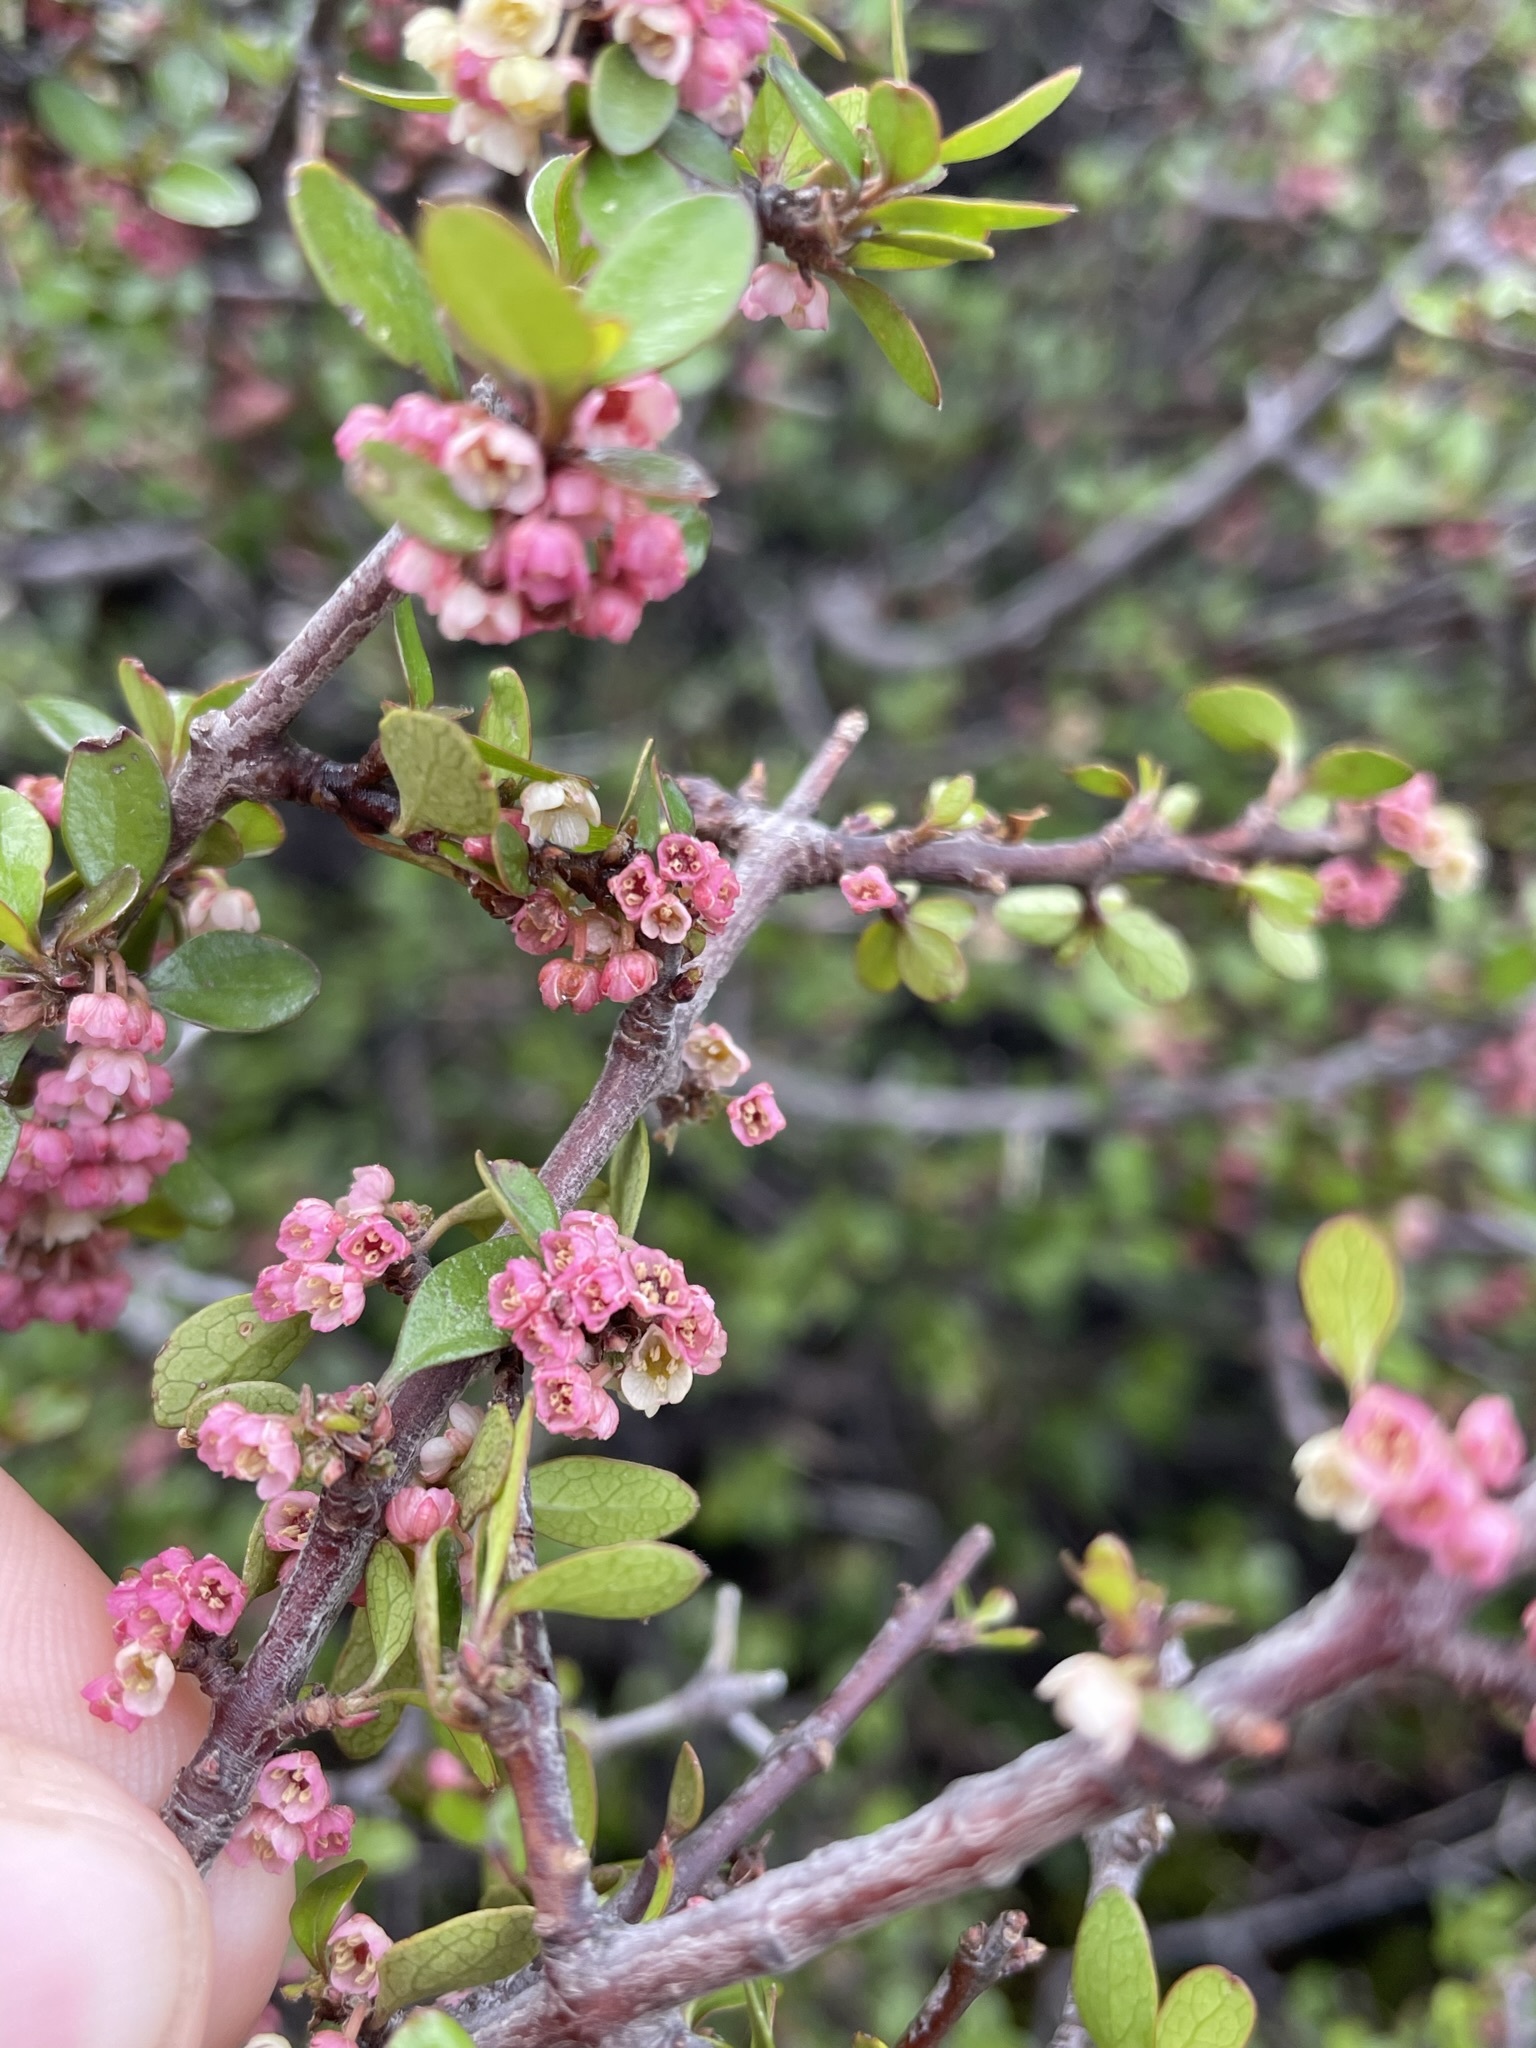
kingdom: Plantae
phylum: Tracheophyta
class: Magnoliopsida
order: Oxalidales
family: Elaeocarpaceae
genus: Aristotelia
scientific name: Aristotelia fruticosa
